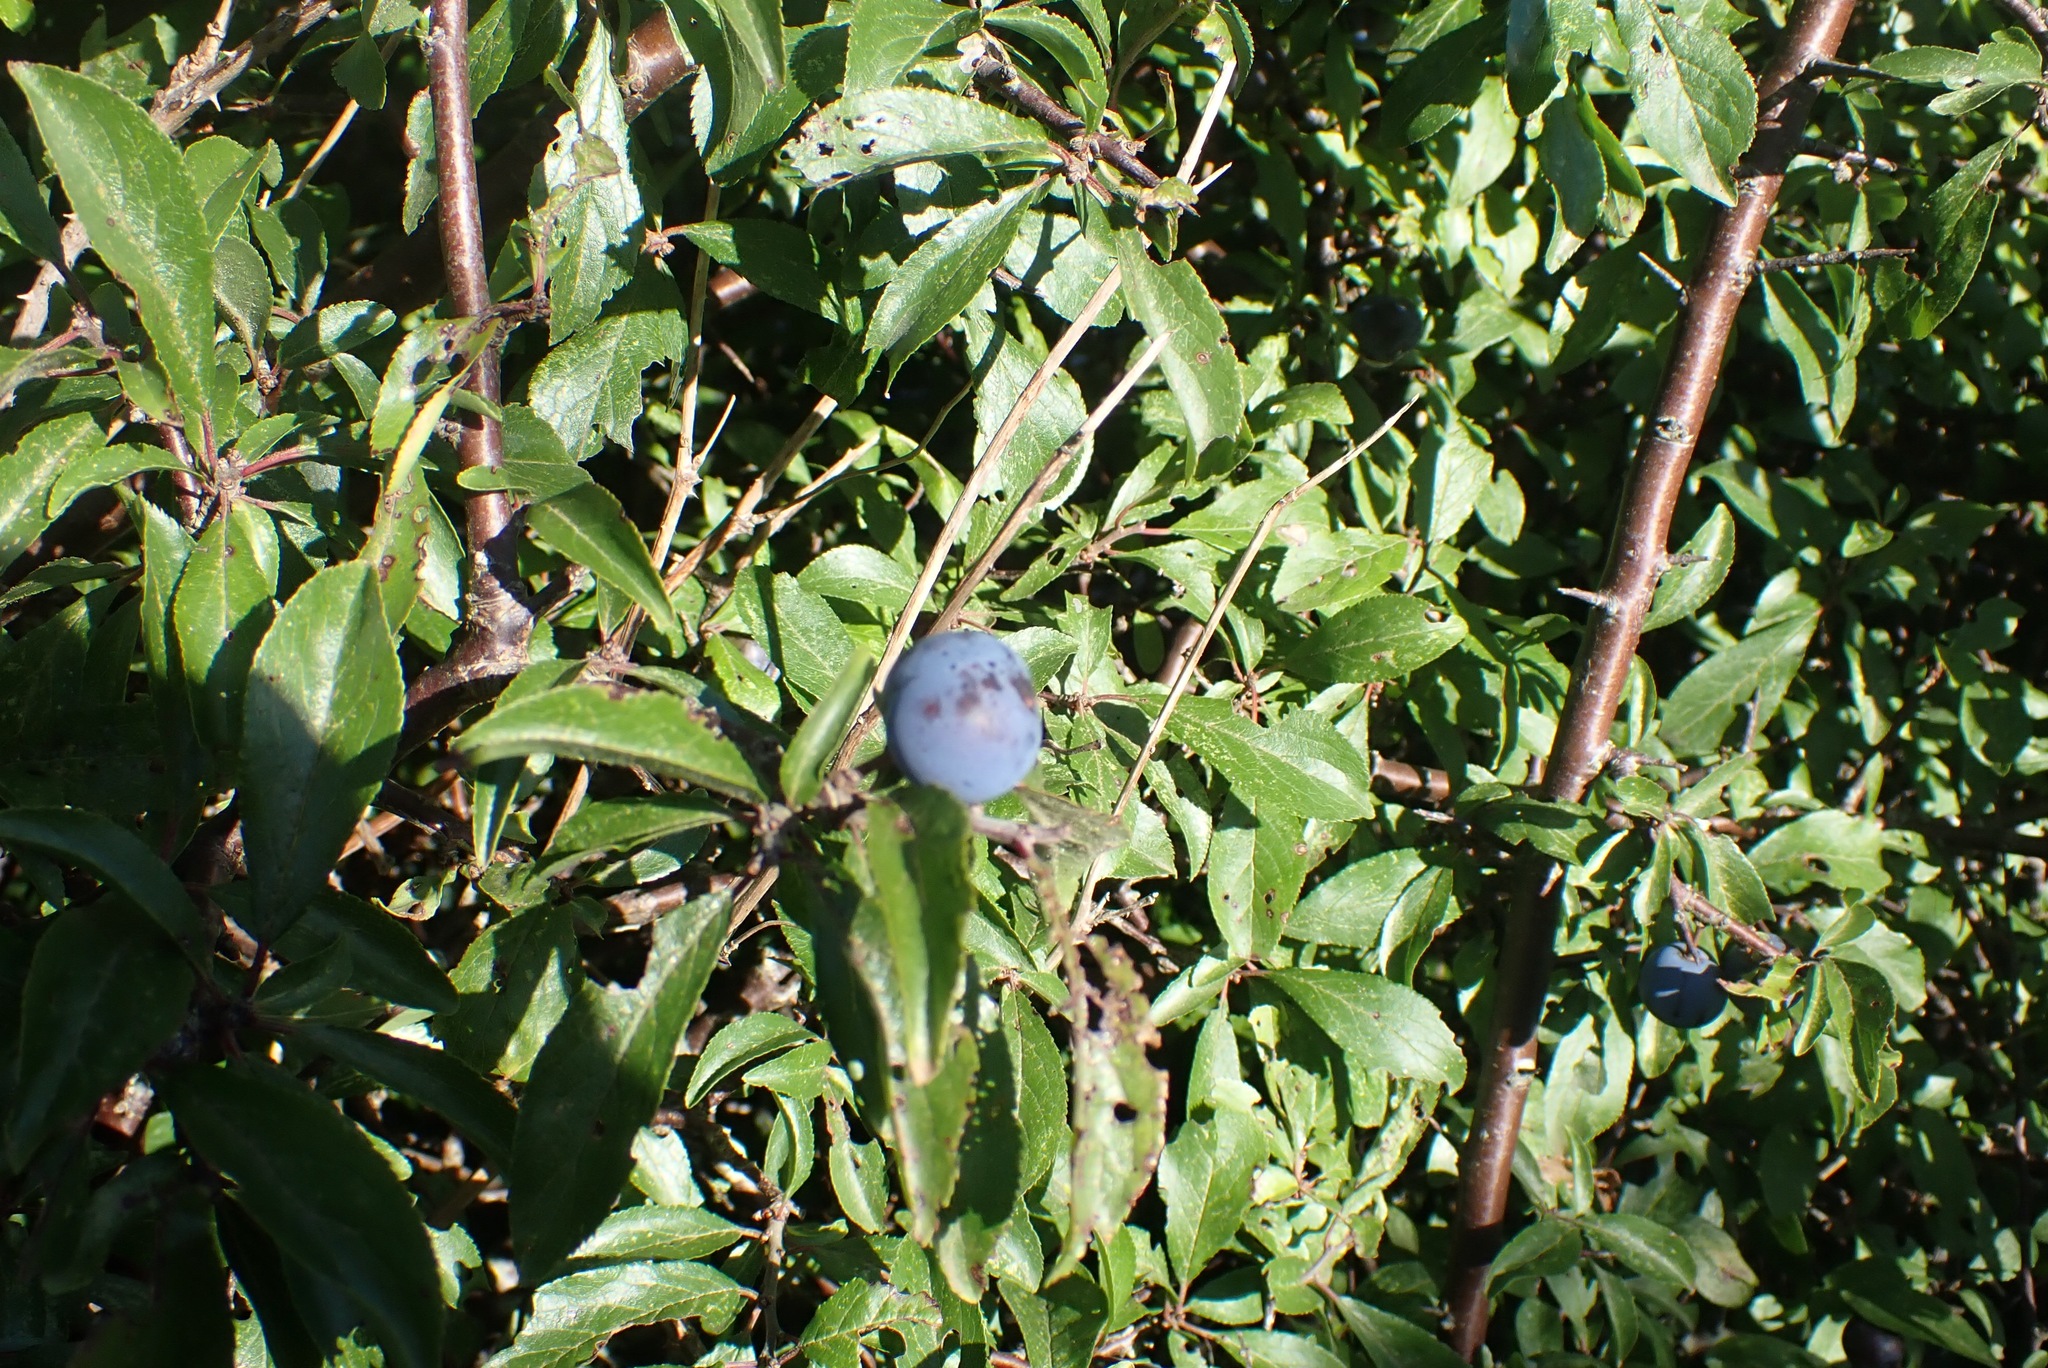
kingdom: Plantae
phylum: Tracheophyta
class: Magnoliopsida
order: Rosales
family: Rosaceae
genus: Prunus
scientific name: Prunus spinosa
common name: Blackthorn
